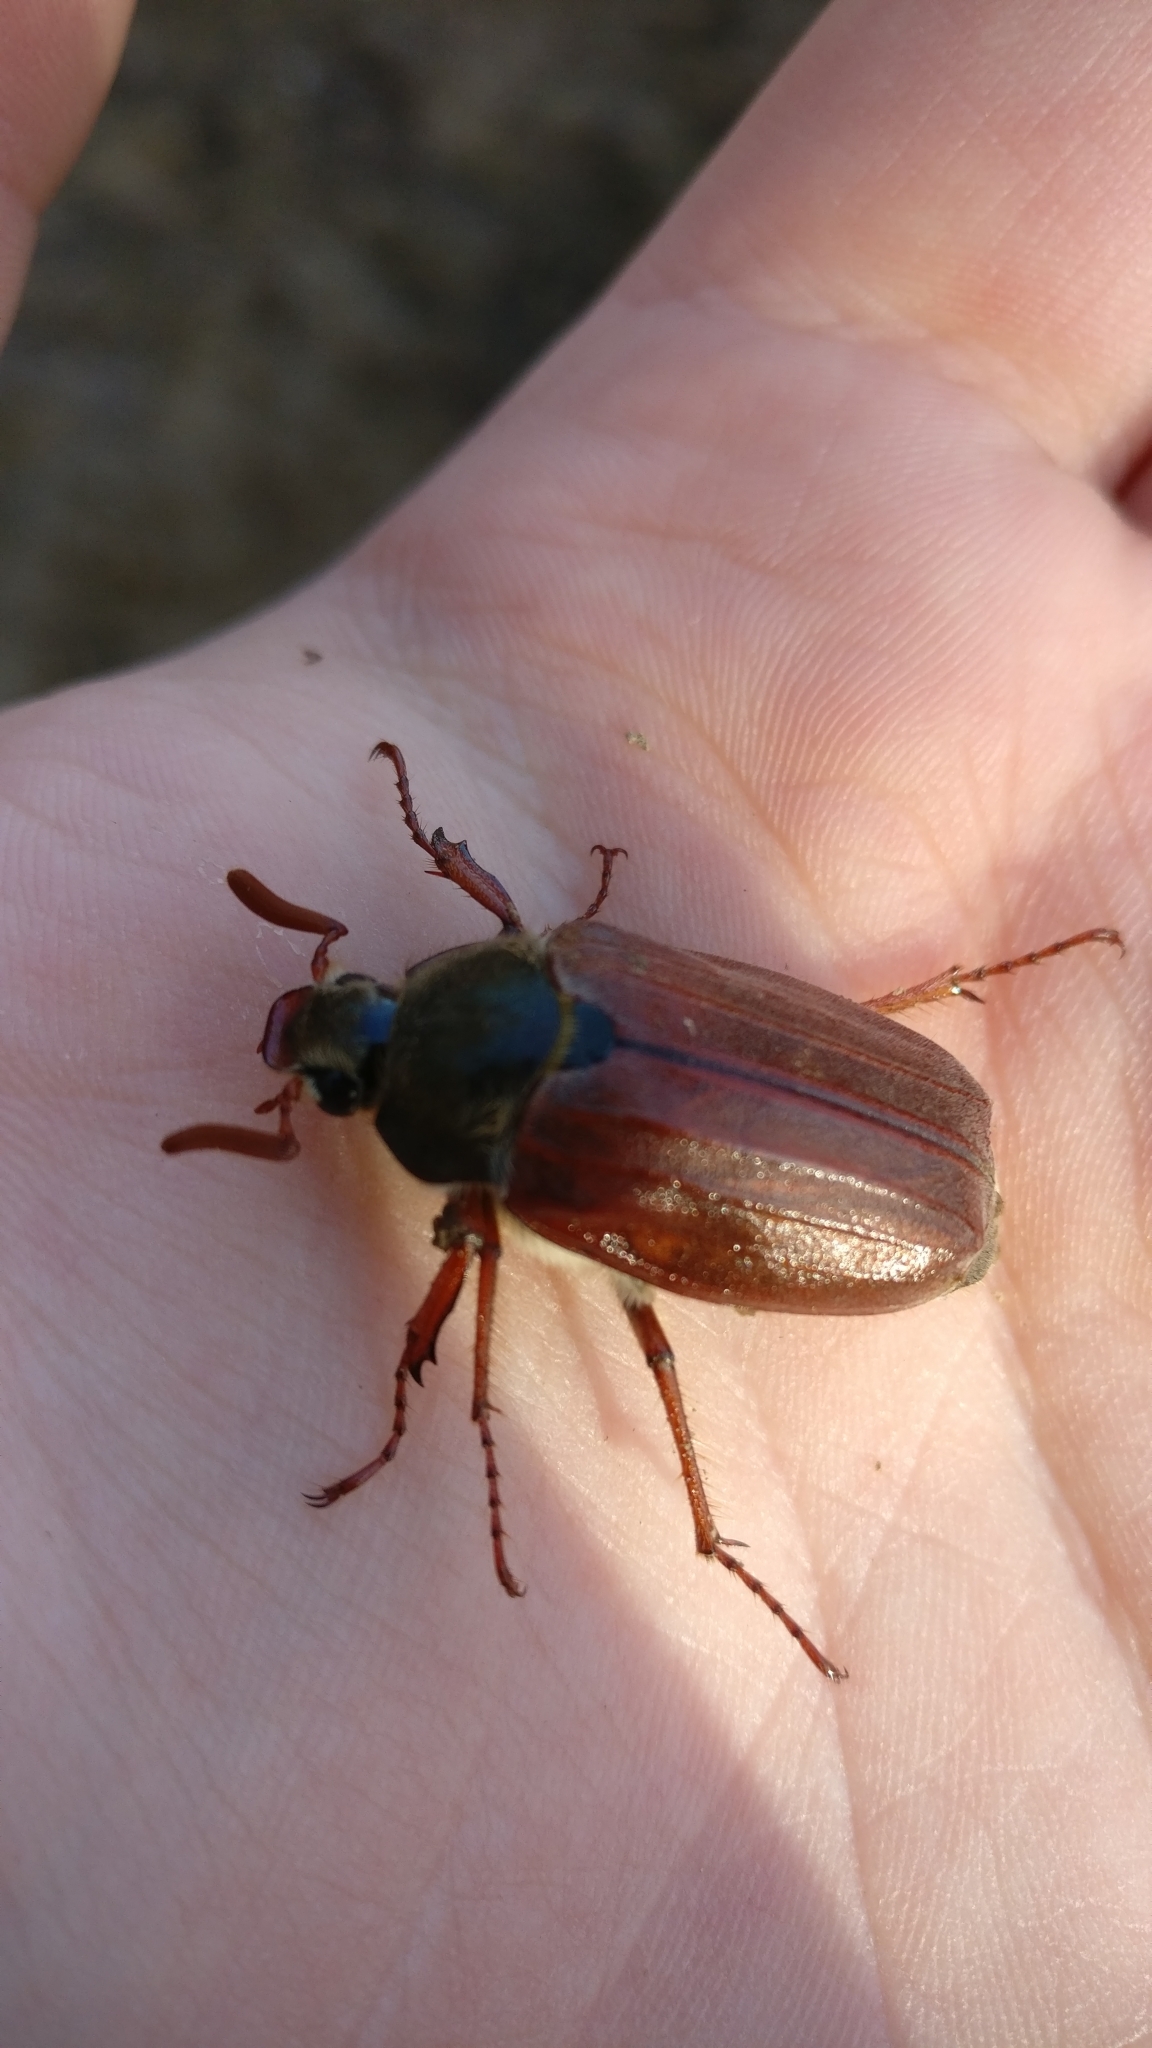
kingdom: Animalia
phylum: Arthropoda
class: Insecta
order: Coleoptera
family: Scarabaeidae
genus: Melolontha
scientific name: Melolontha melolontha
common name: Cockchafer maybeetle
